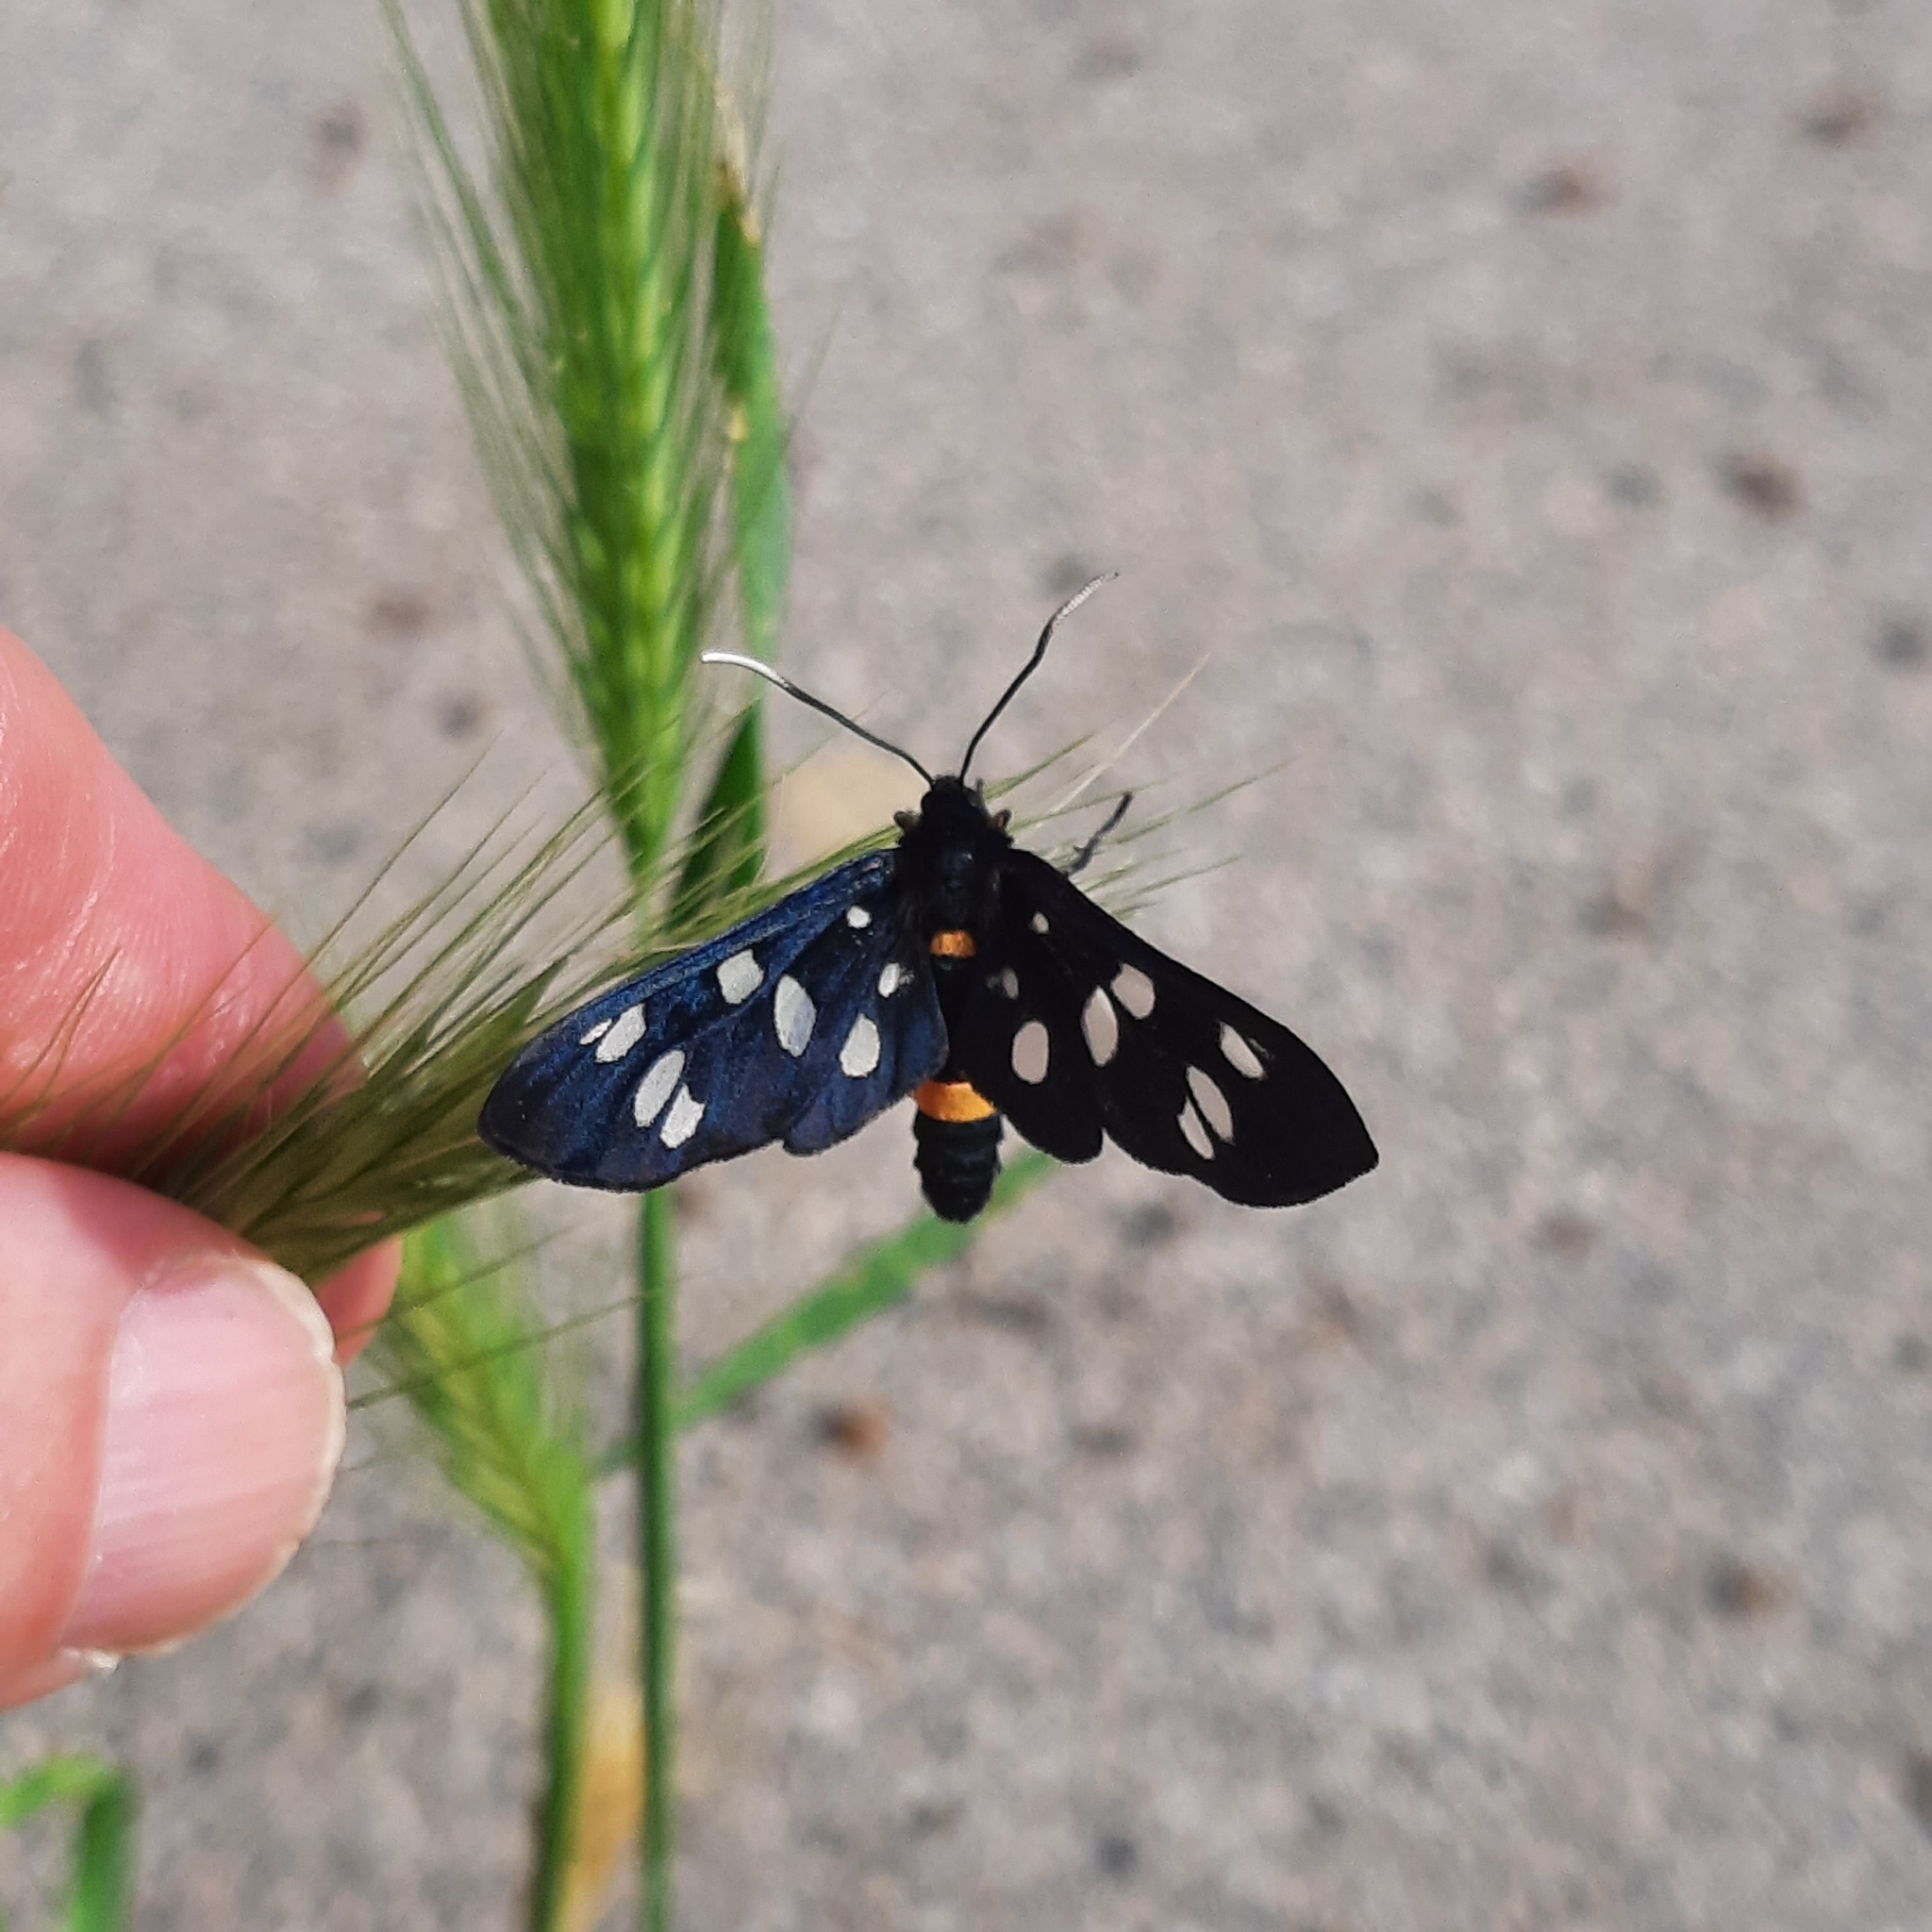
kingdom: Animalia
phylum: Arthropoda
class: Insecta
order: Lepidoptera
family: Erebidae
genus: Amata
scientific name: Amata phegea
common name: Nine-spotted
